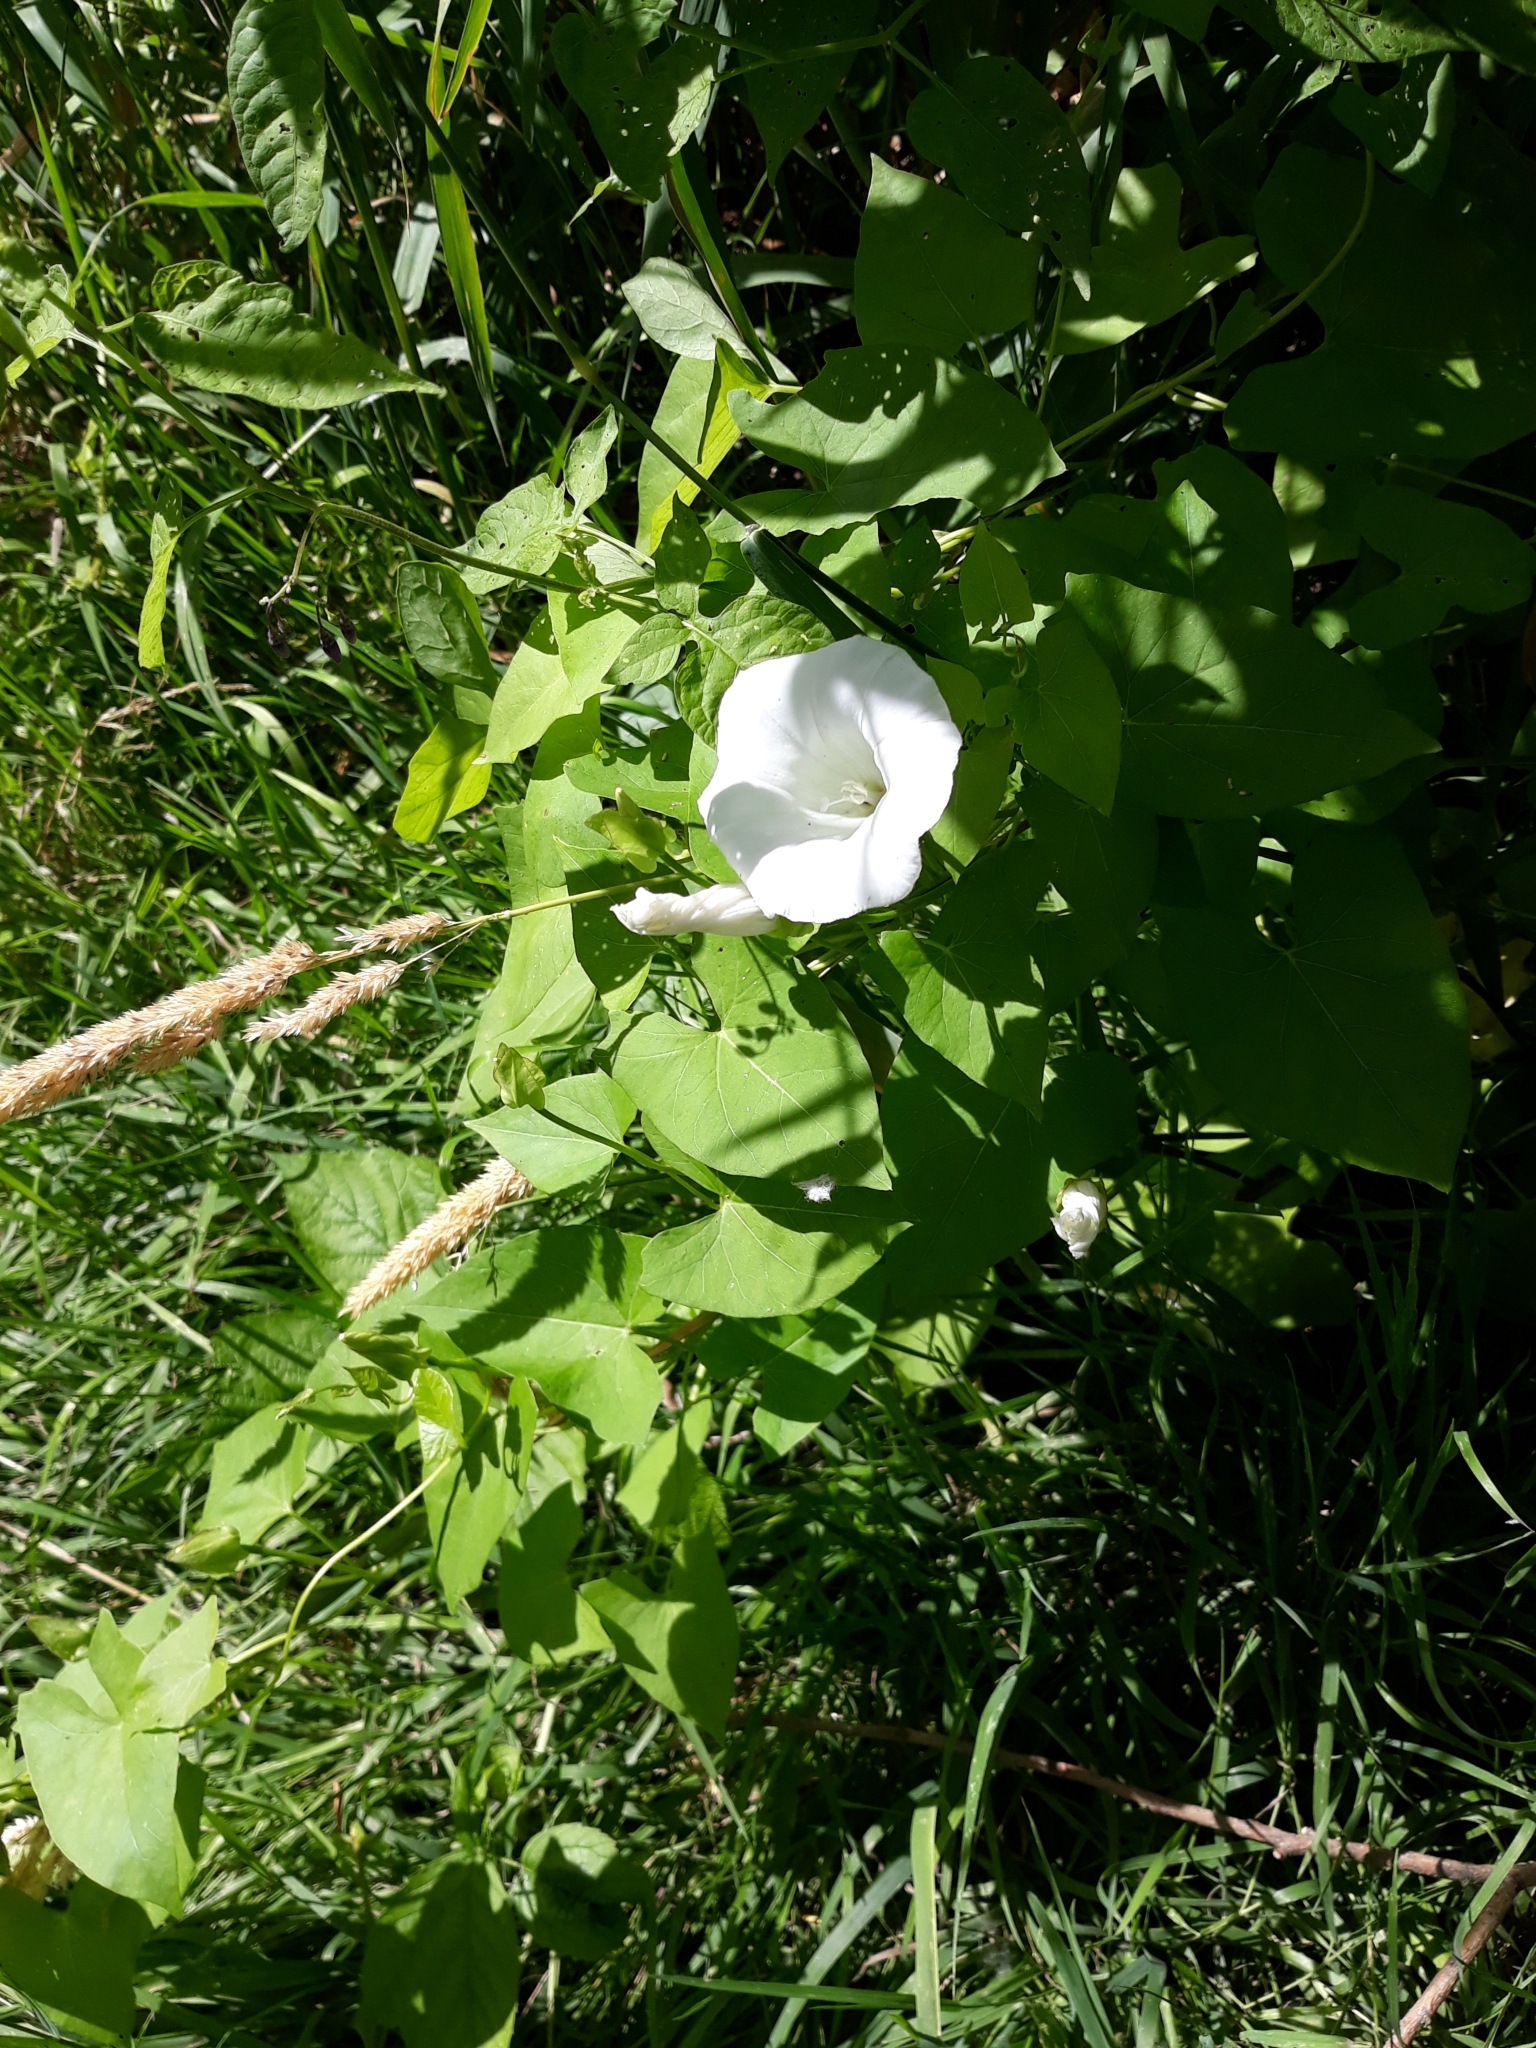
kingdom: Plantae
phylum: Tracheophyta
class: Magnoliopsida
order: Solanales
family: Convolvulaceae
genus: Calystegia
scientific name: Calystegia sepium
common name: Hedge bindweed
